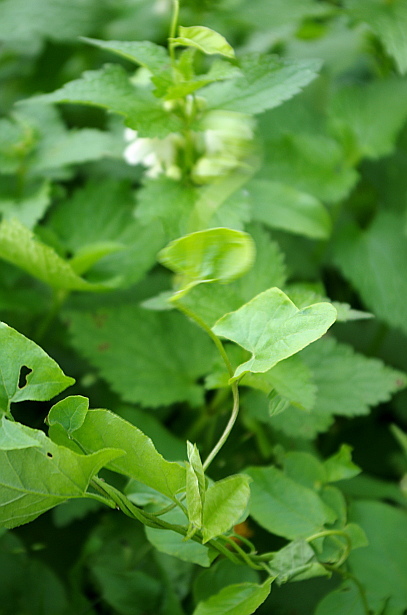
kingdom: Plantae
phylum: Tracheophyta
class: Magnoliopsida
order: Solanales
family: Convolvulaceae
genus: Convolvulus
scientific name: Convolvulus arvensis
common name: Field bindweed
